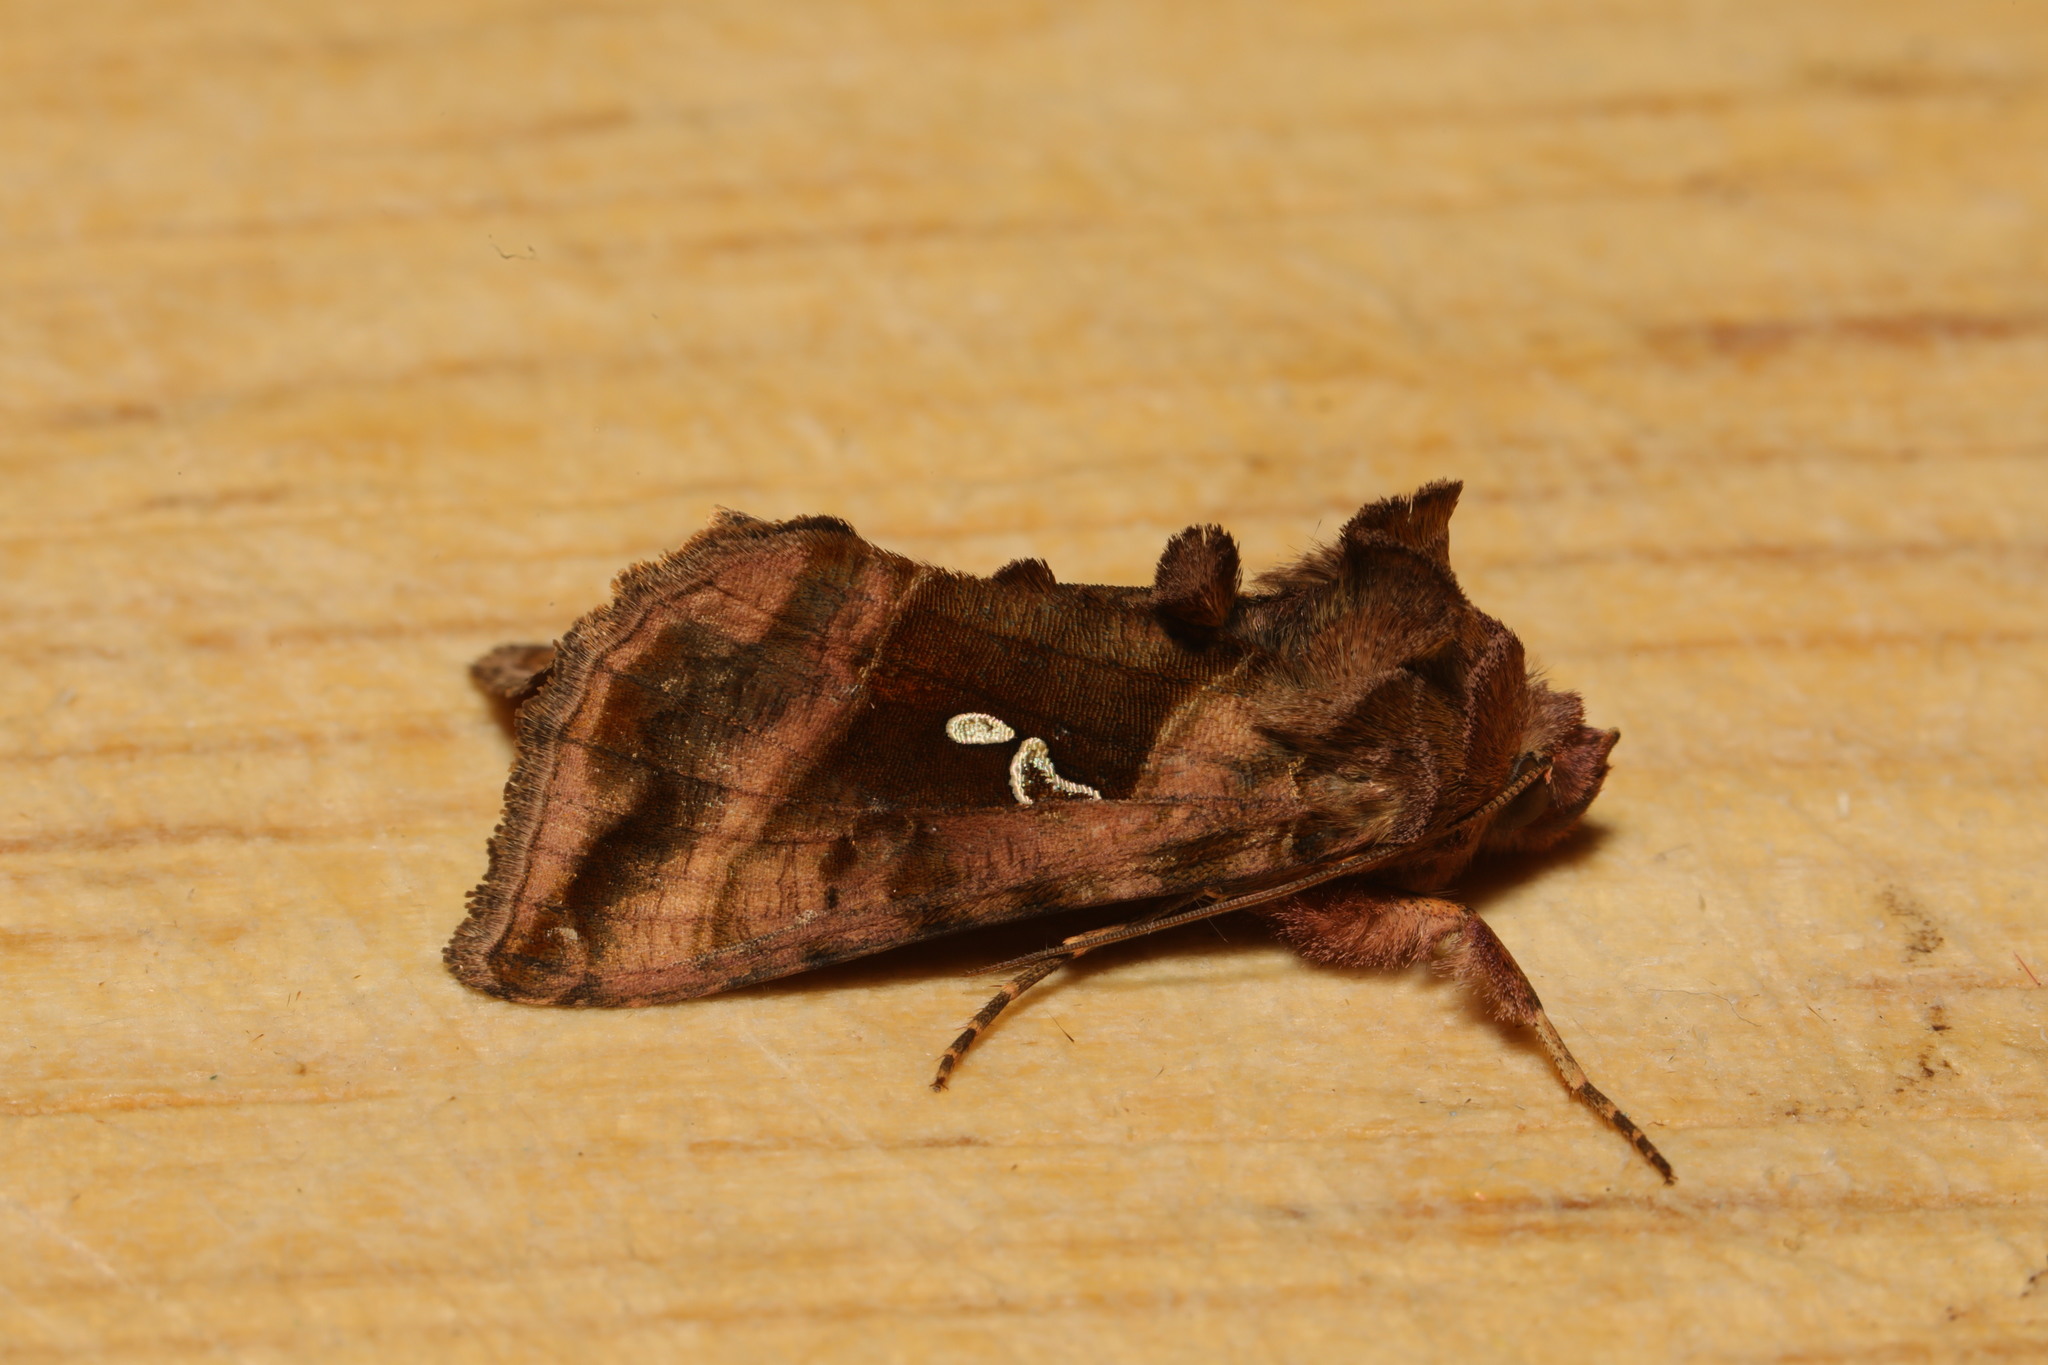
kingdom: Animalia
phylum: Arthropoda
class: Insecta
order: Lepidoptera
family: Noctuidae
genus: Autographa
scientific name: Autographa jota
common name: Plain golden y
